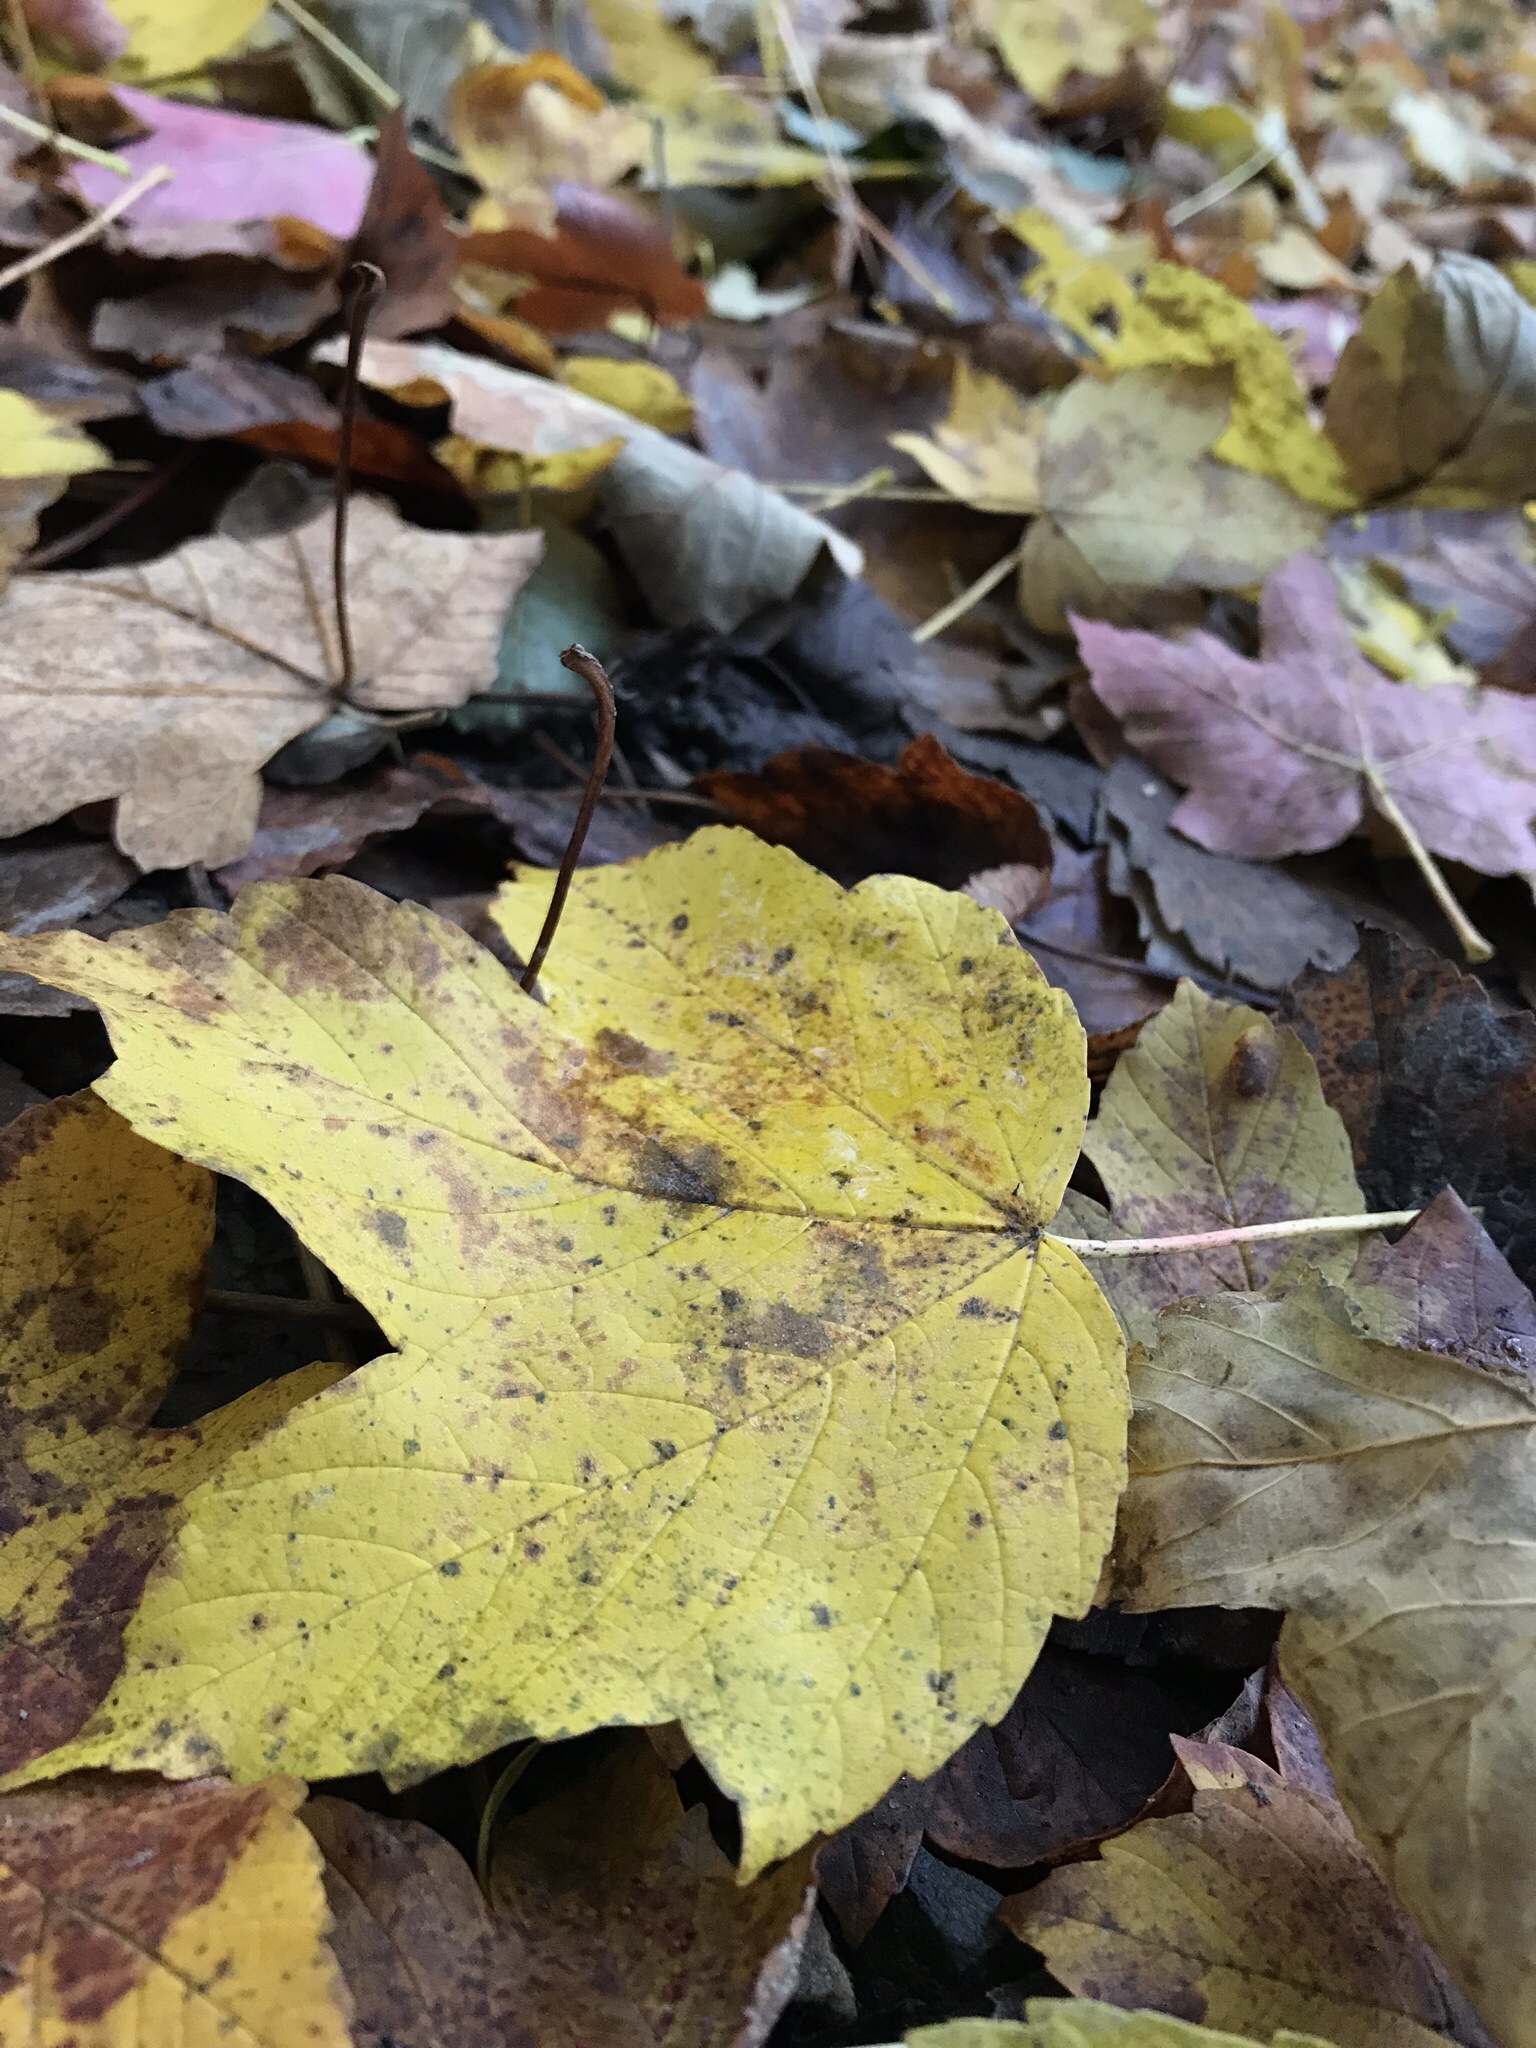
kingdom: Plantae
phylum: Tracheophyta
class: Magnoliopsida
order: Sapindales
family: Sapindaceae
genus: Acer
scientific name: Acer pseudoplatanus
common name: Sycamore
